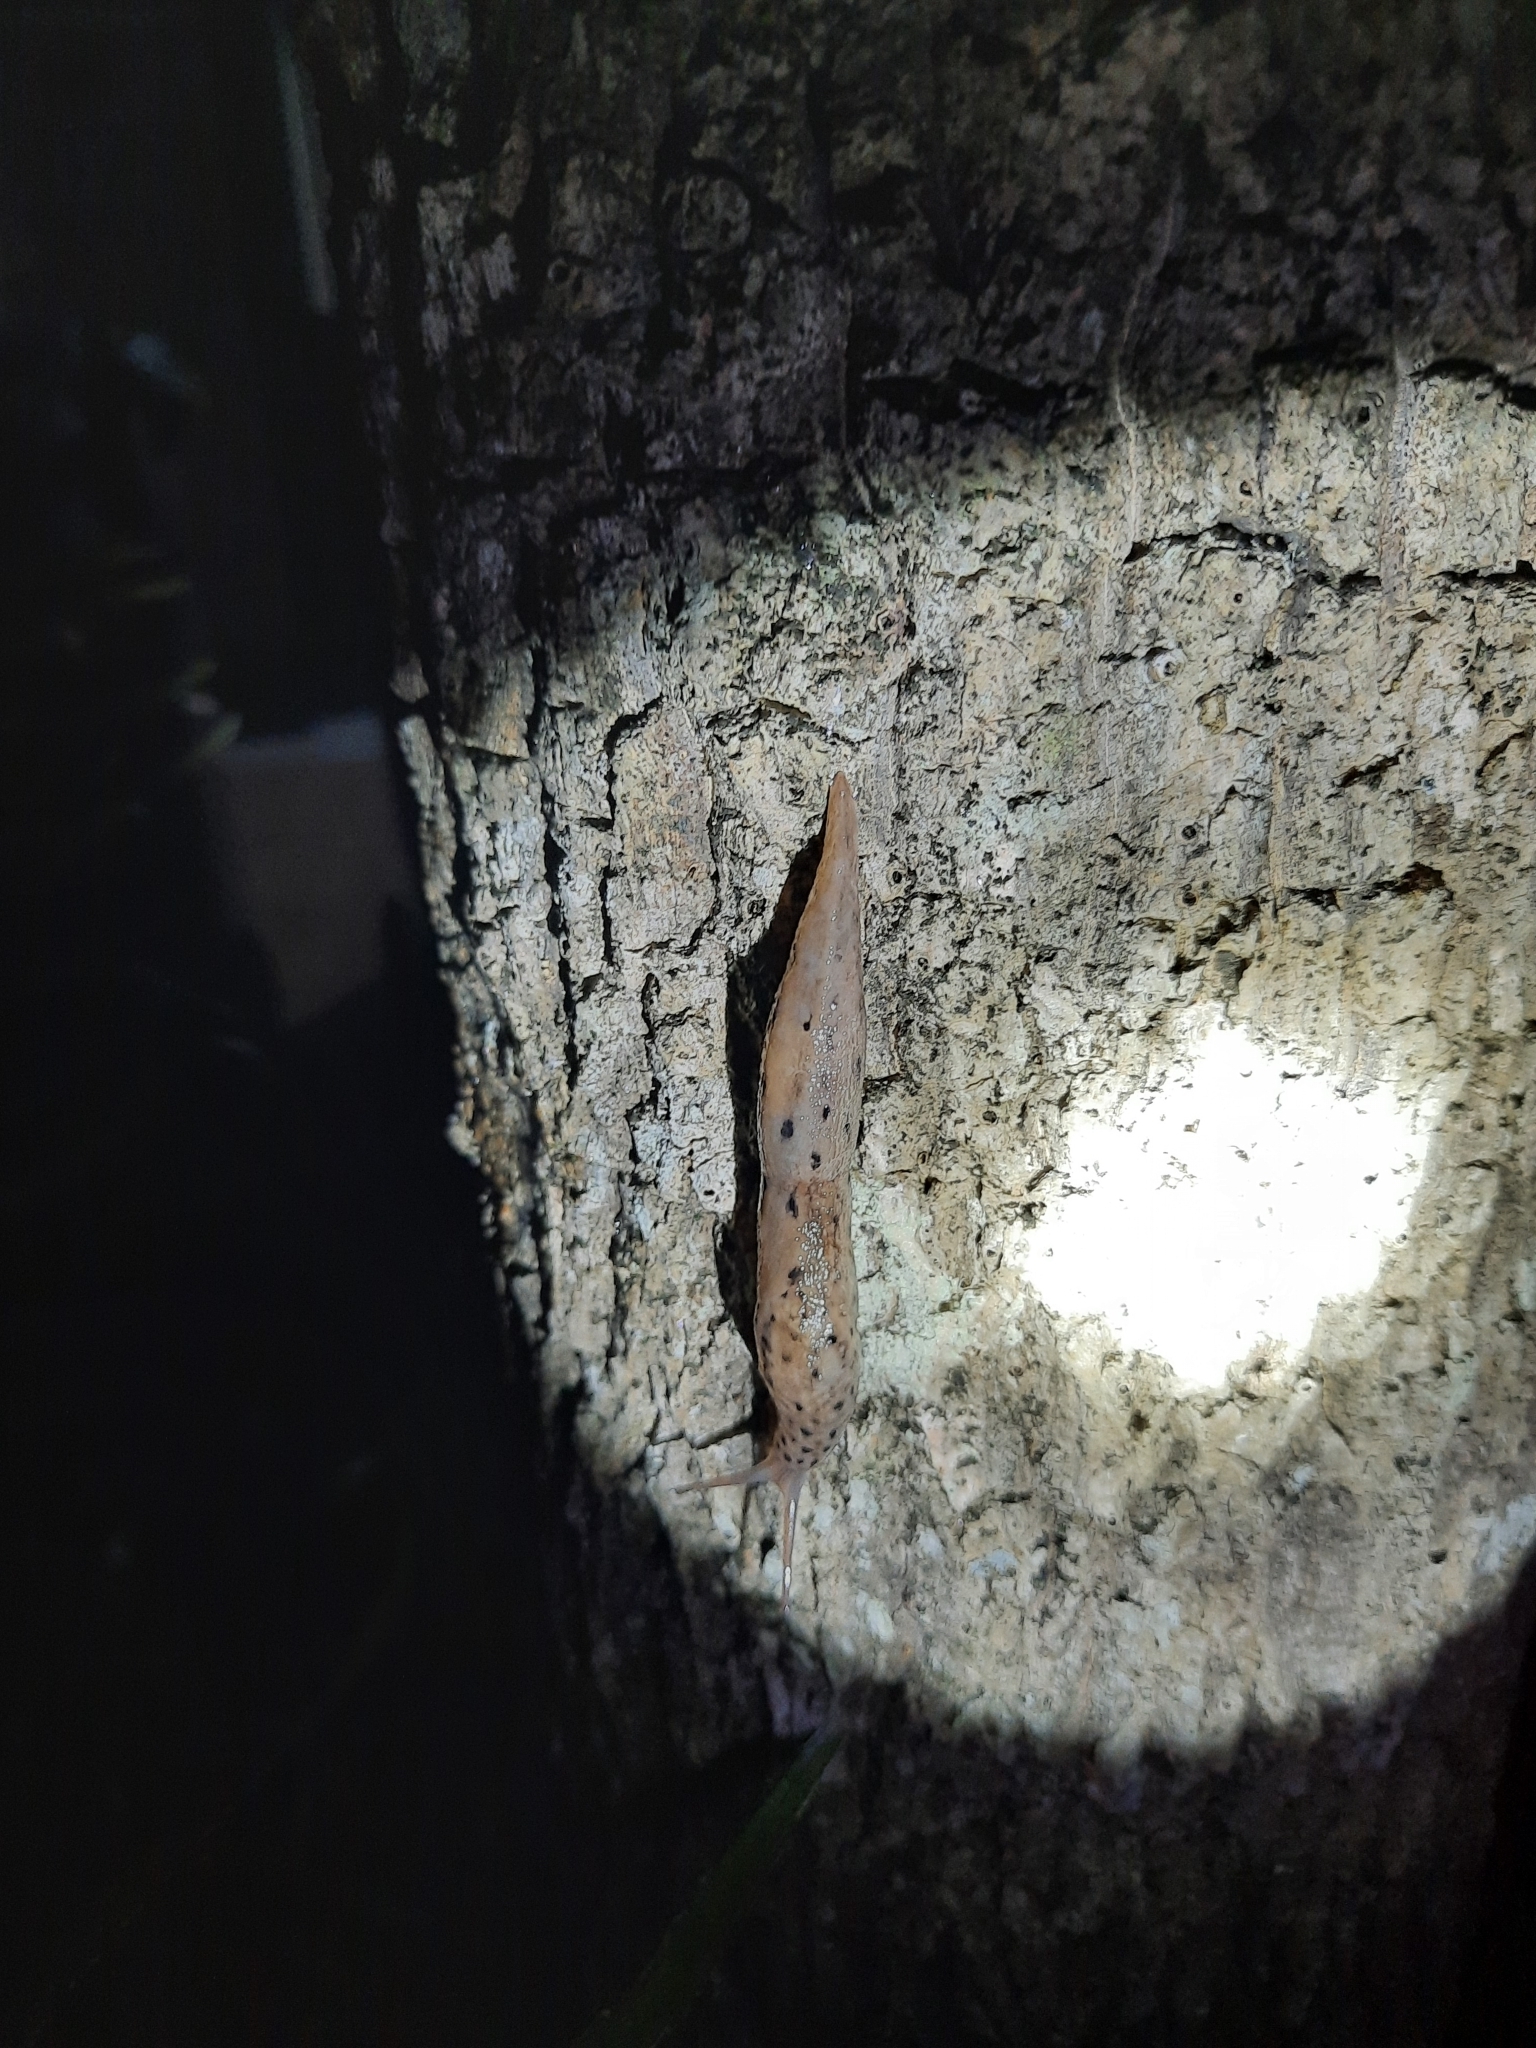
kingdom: Animalia
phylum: Mollusca
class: Gastropoda
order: Stylommatophora
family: Limacidae
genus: Limax
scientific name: Limax maximus
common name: Great grey slug
